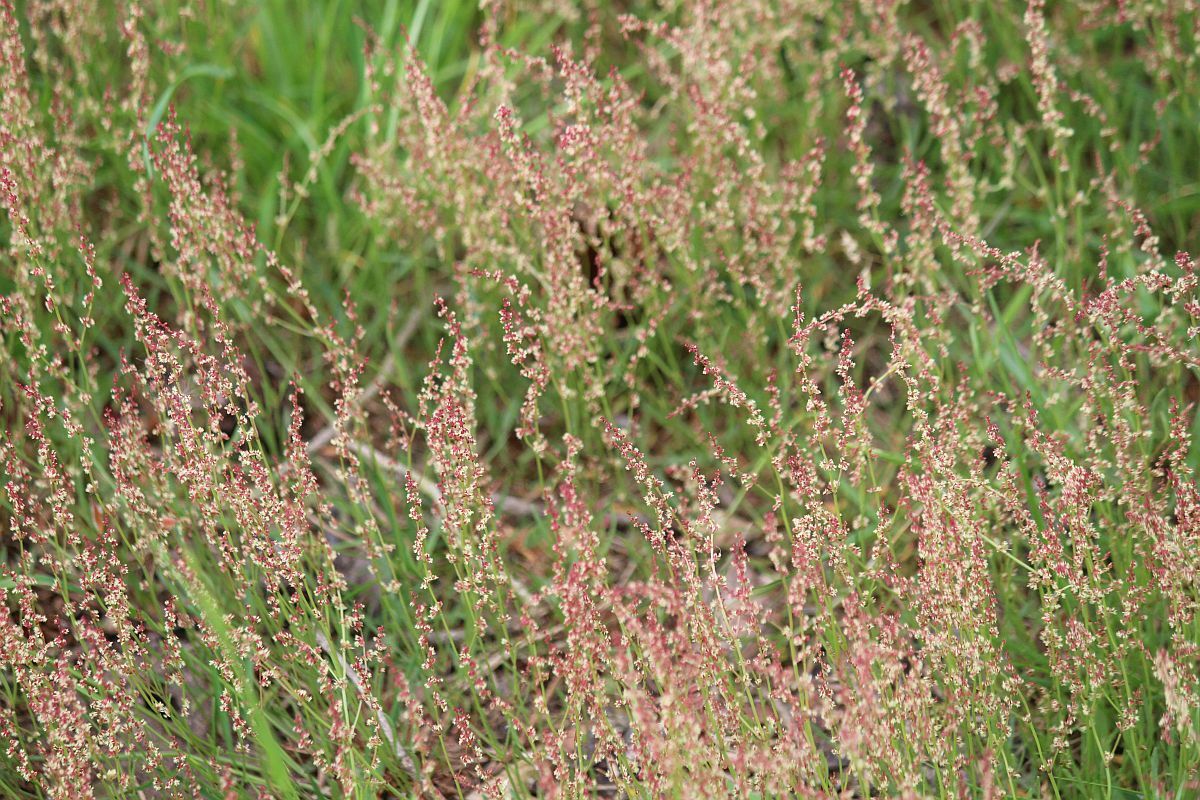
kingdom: Plantae
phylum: Tracheophyta
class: Magnoliopsida
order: Caryophyllales
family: Polygonaceae
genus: Rumex
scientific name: Rumex acetosella
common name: Common sheep sorrel
